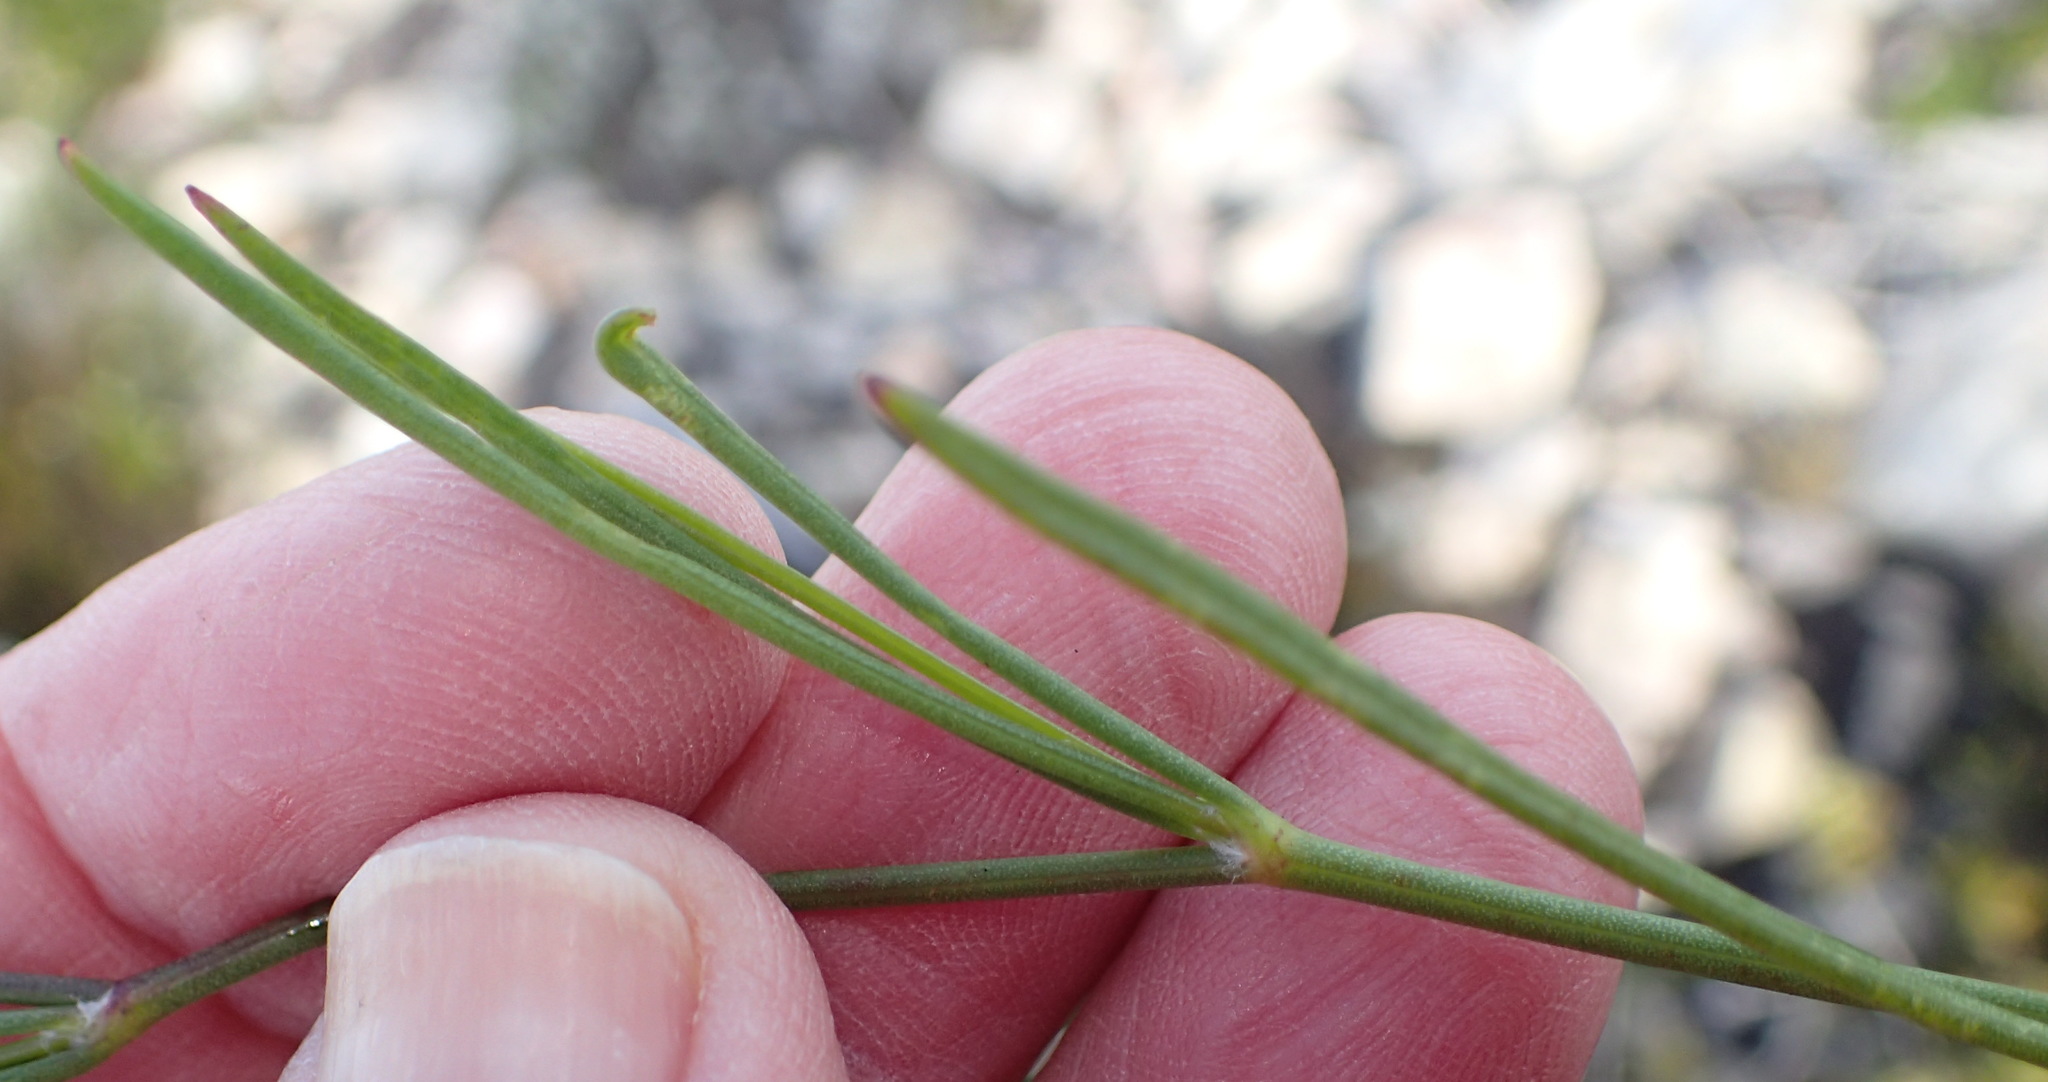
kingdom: Plantae
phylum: Tracheophyta
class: Magnoliopsida
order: Apiales
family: Apiaceae
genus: Centella
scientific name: Centella virgata
